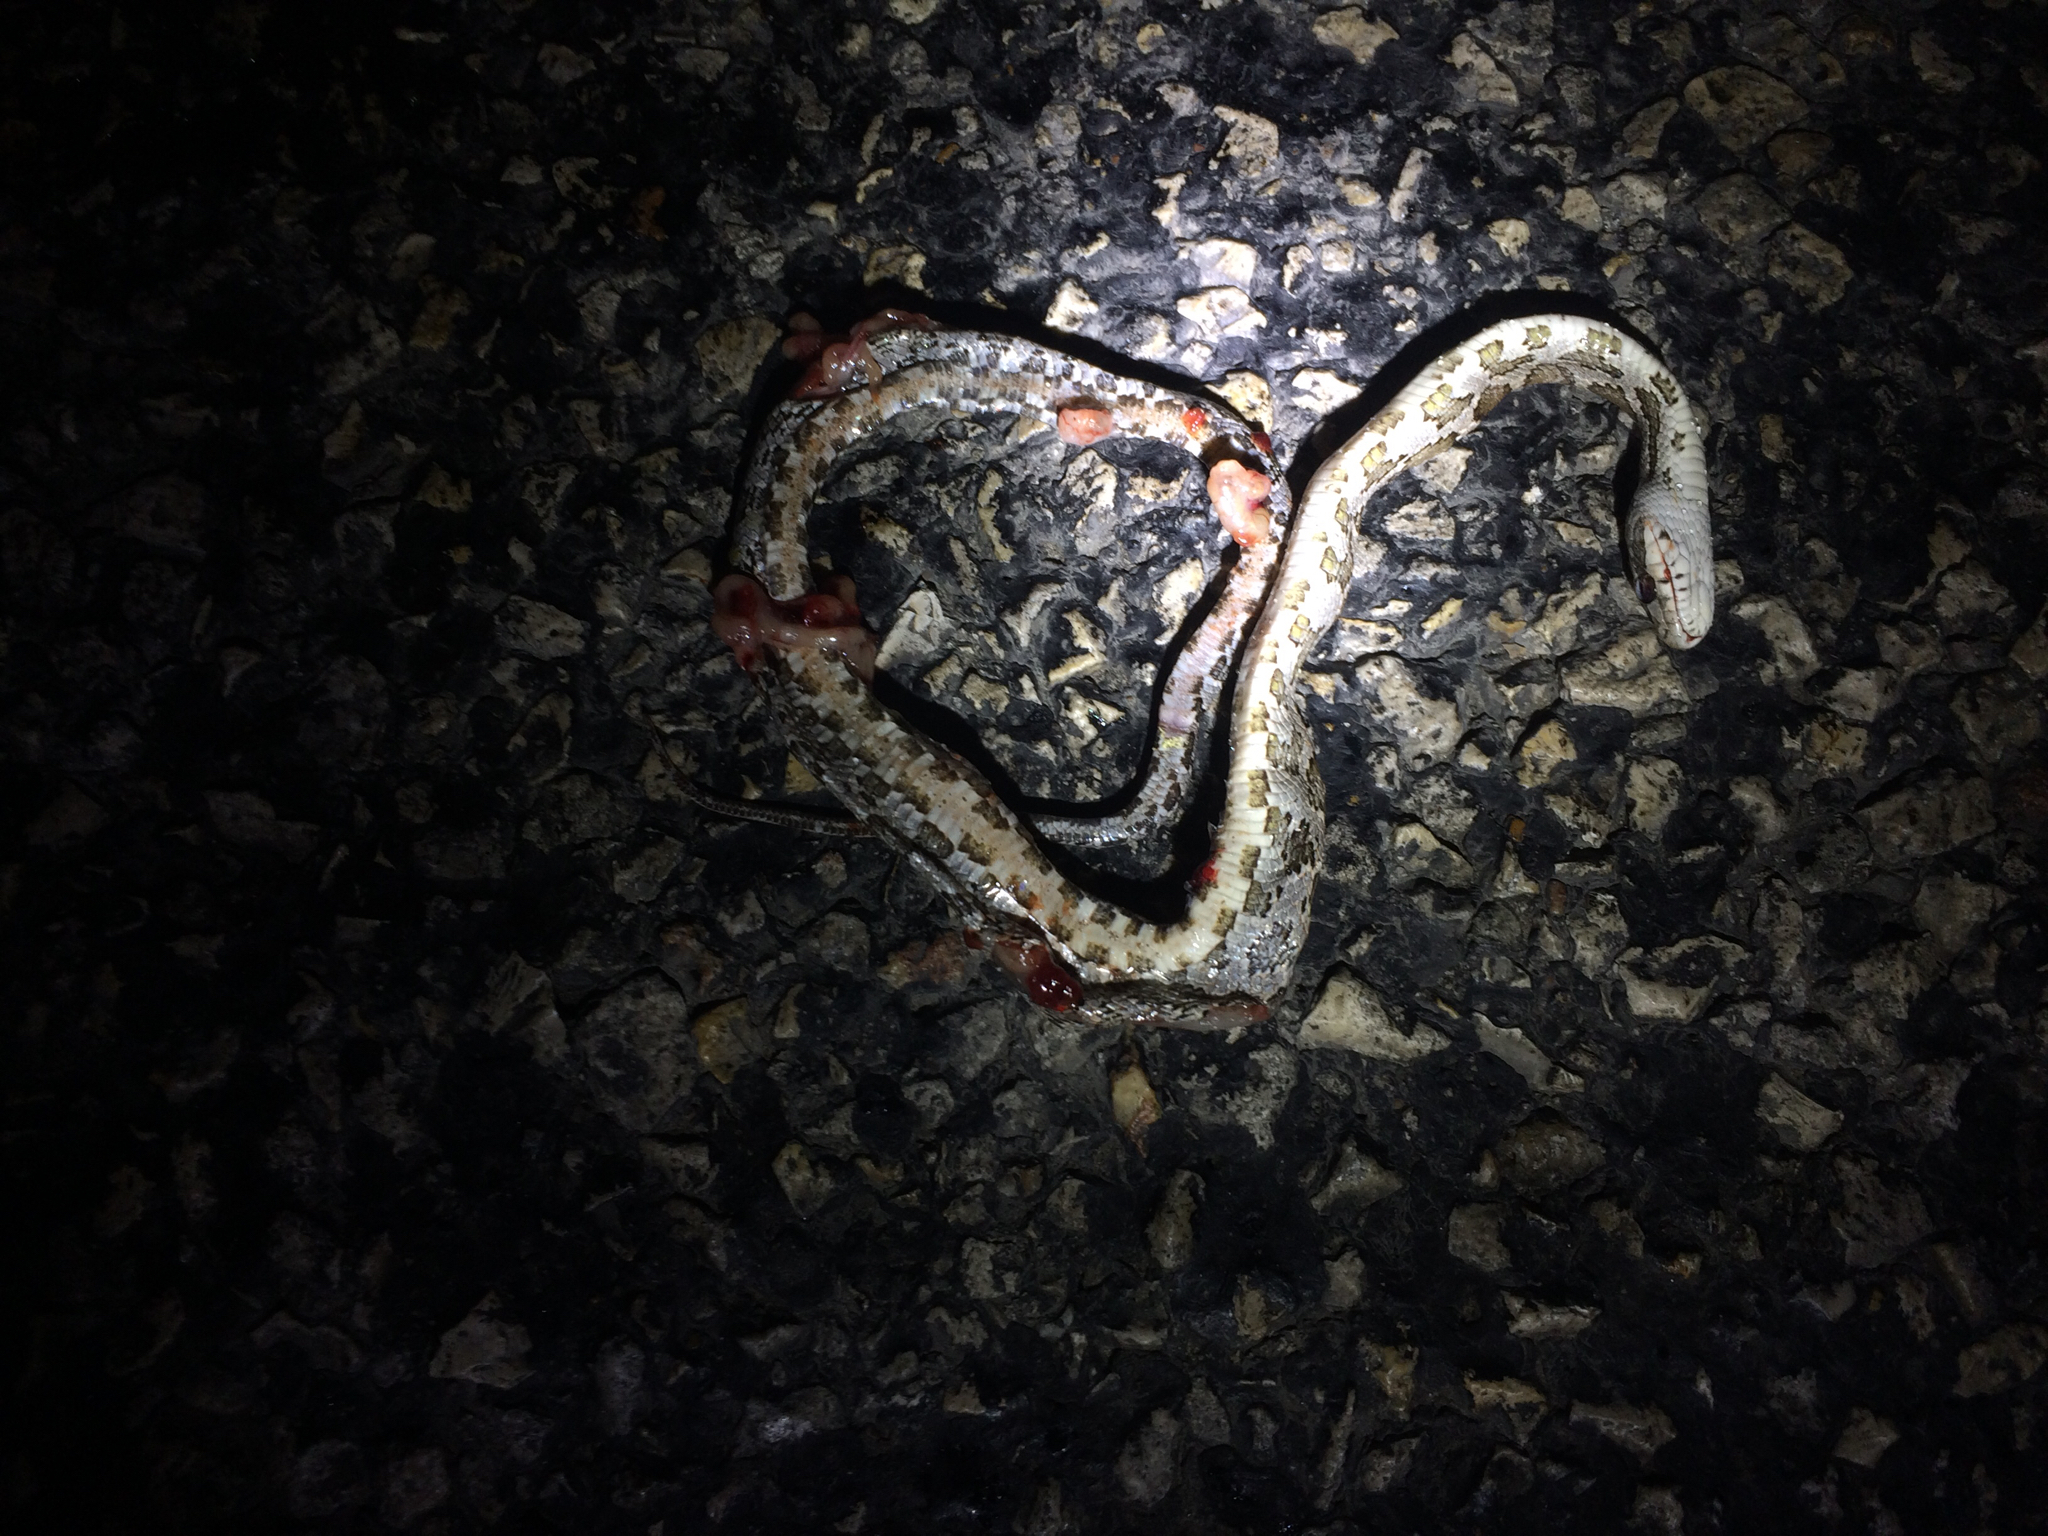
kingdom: Animalia
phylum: Chordata
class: Squamata
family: Colubridae
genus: Pantherophis
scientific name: Pantherophis obsoletus
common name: Black rat snake
